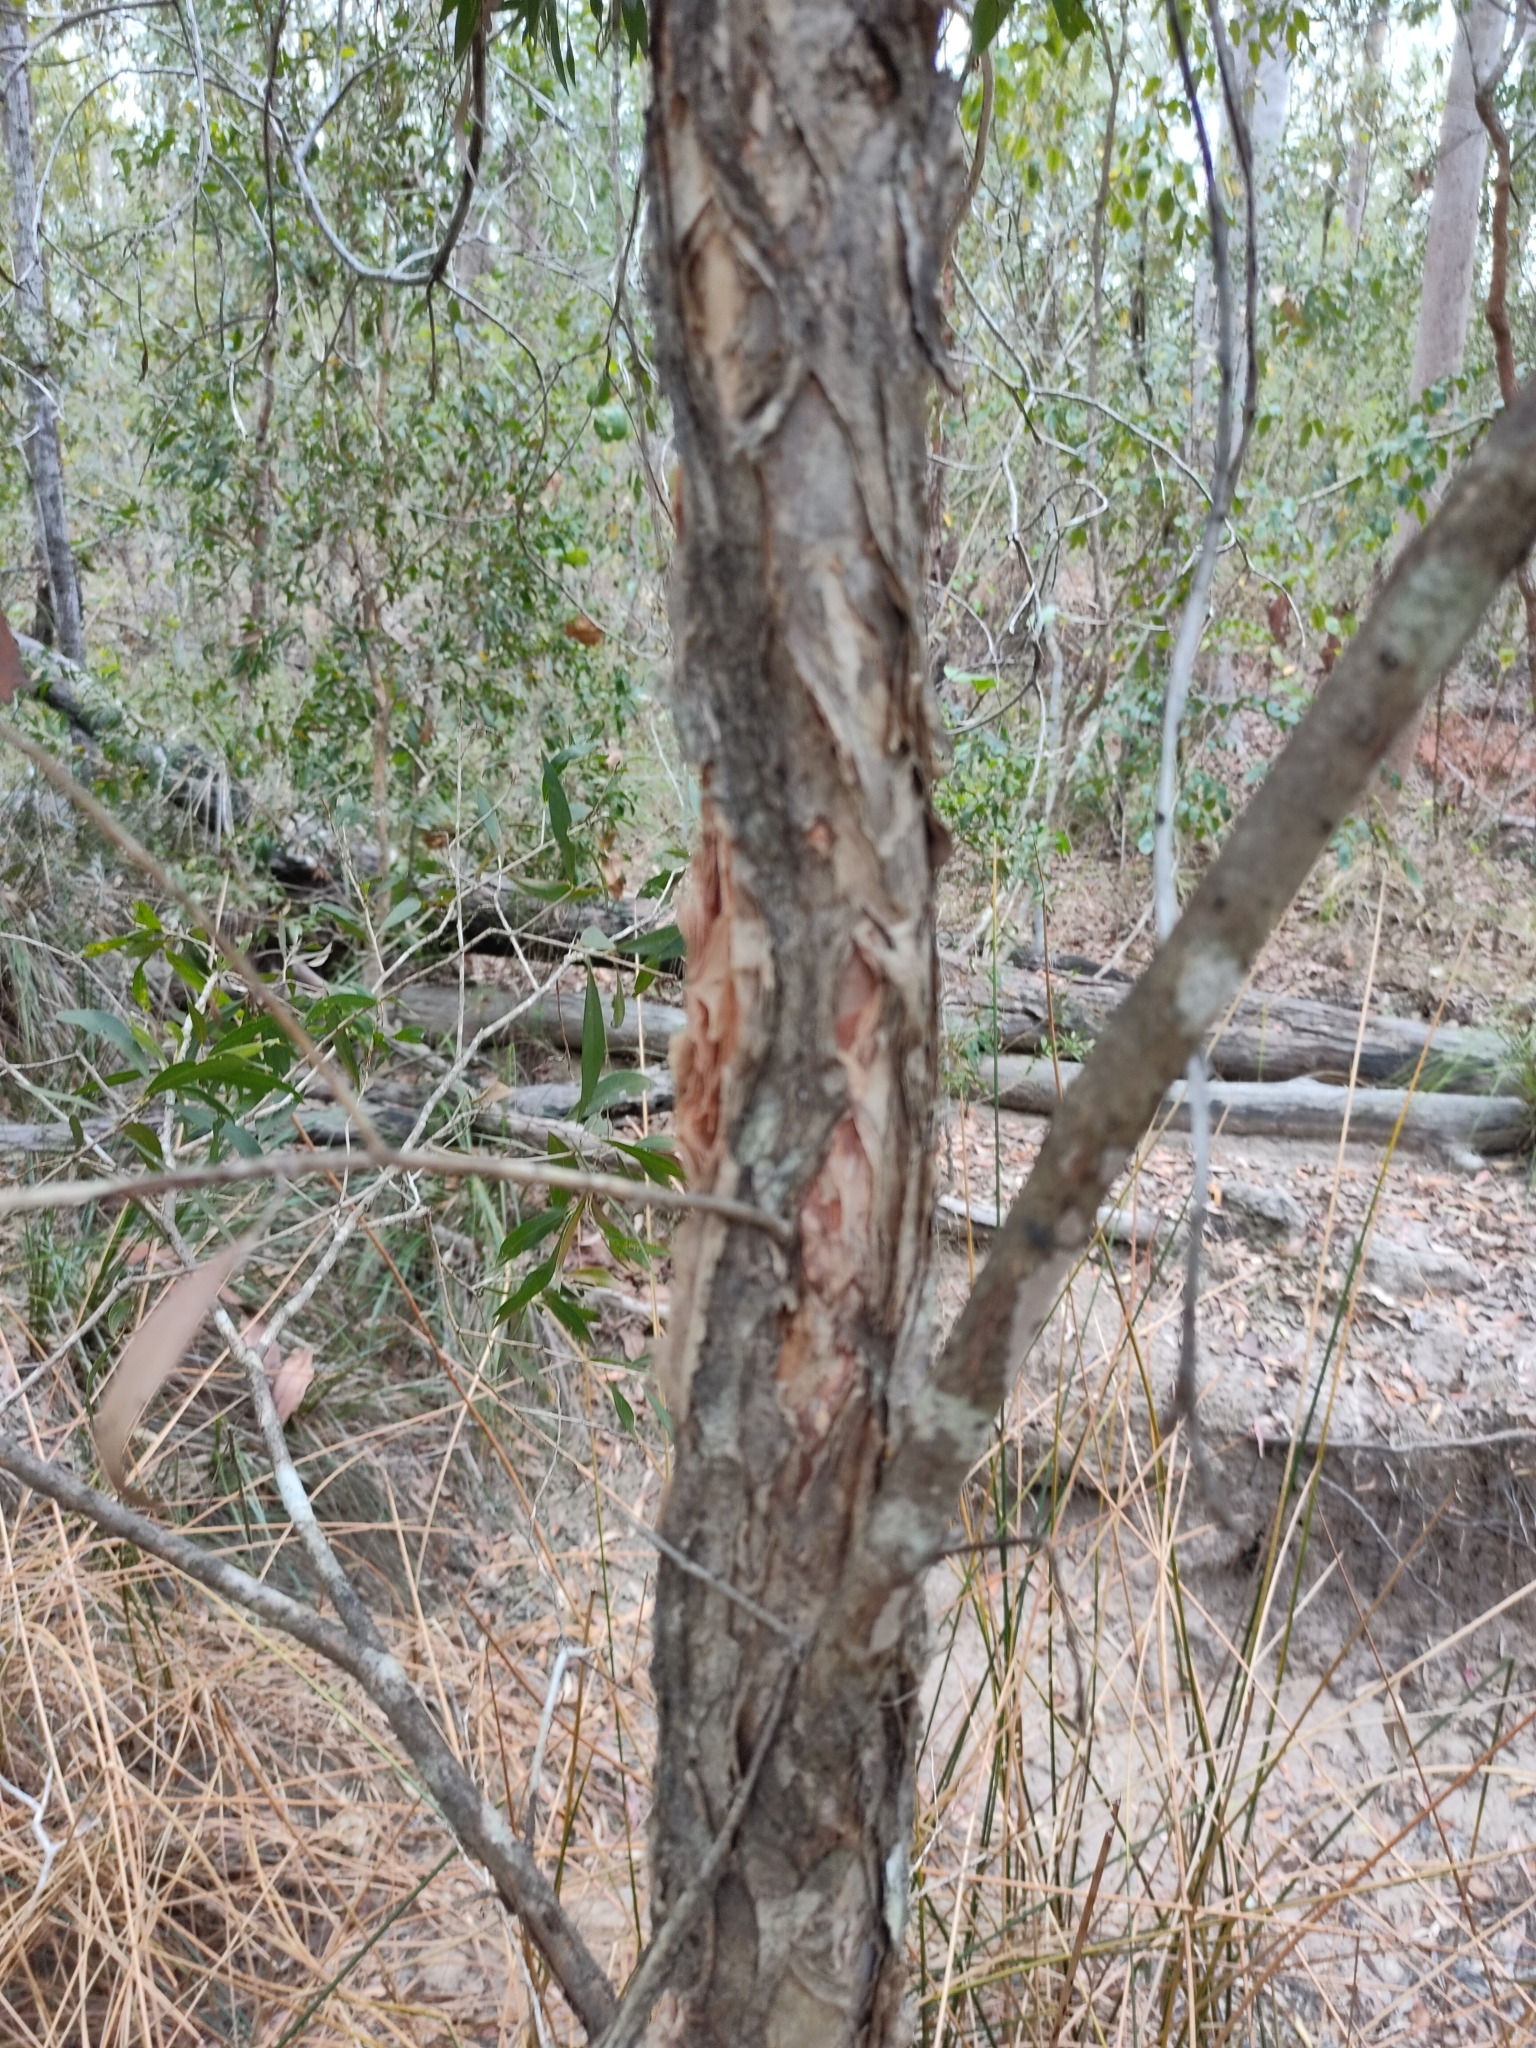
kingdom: Plantae
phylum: Tracheophyta
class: Magnoliopsida
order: Myrtales
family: Myrtaceae
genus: Callistemon
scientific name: Callistemon salignus
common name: White bottlebrush
